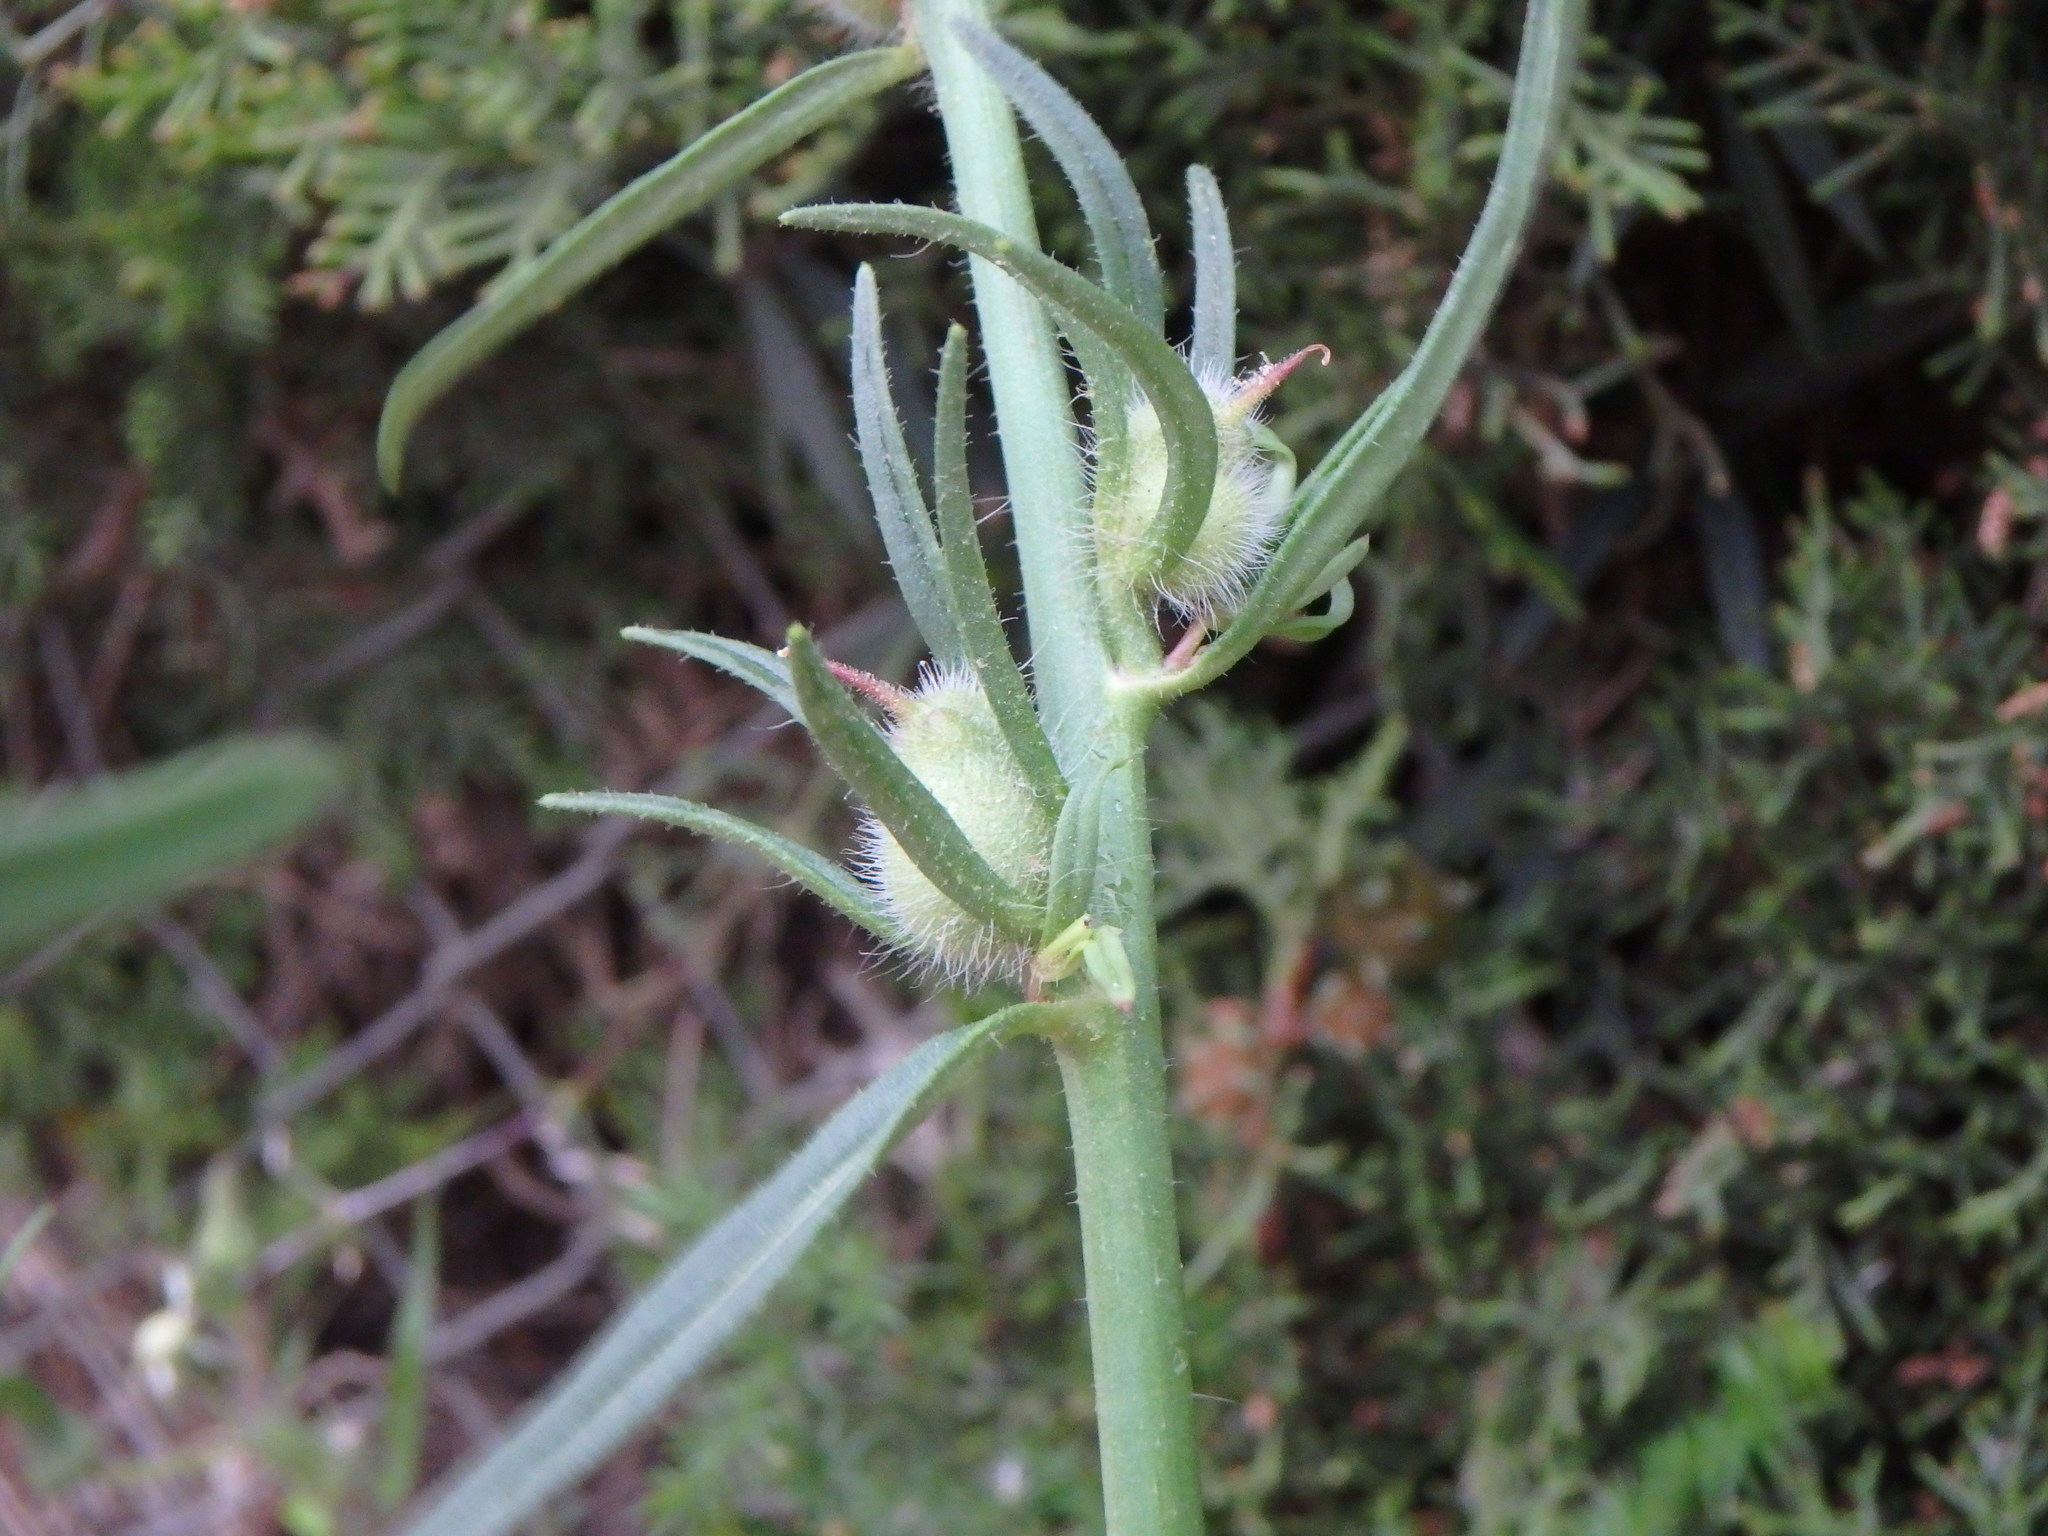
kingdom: Plantae
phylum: Tracheophyta
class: Magnoliopsida
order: Lamiales
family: Plantaginaceae
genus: Misopates
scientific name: Misopates orontium
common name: Weasel's-snout
